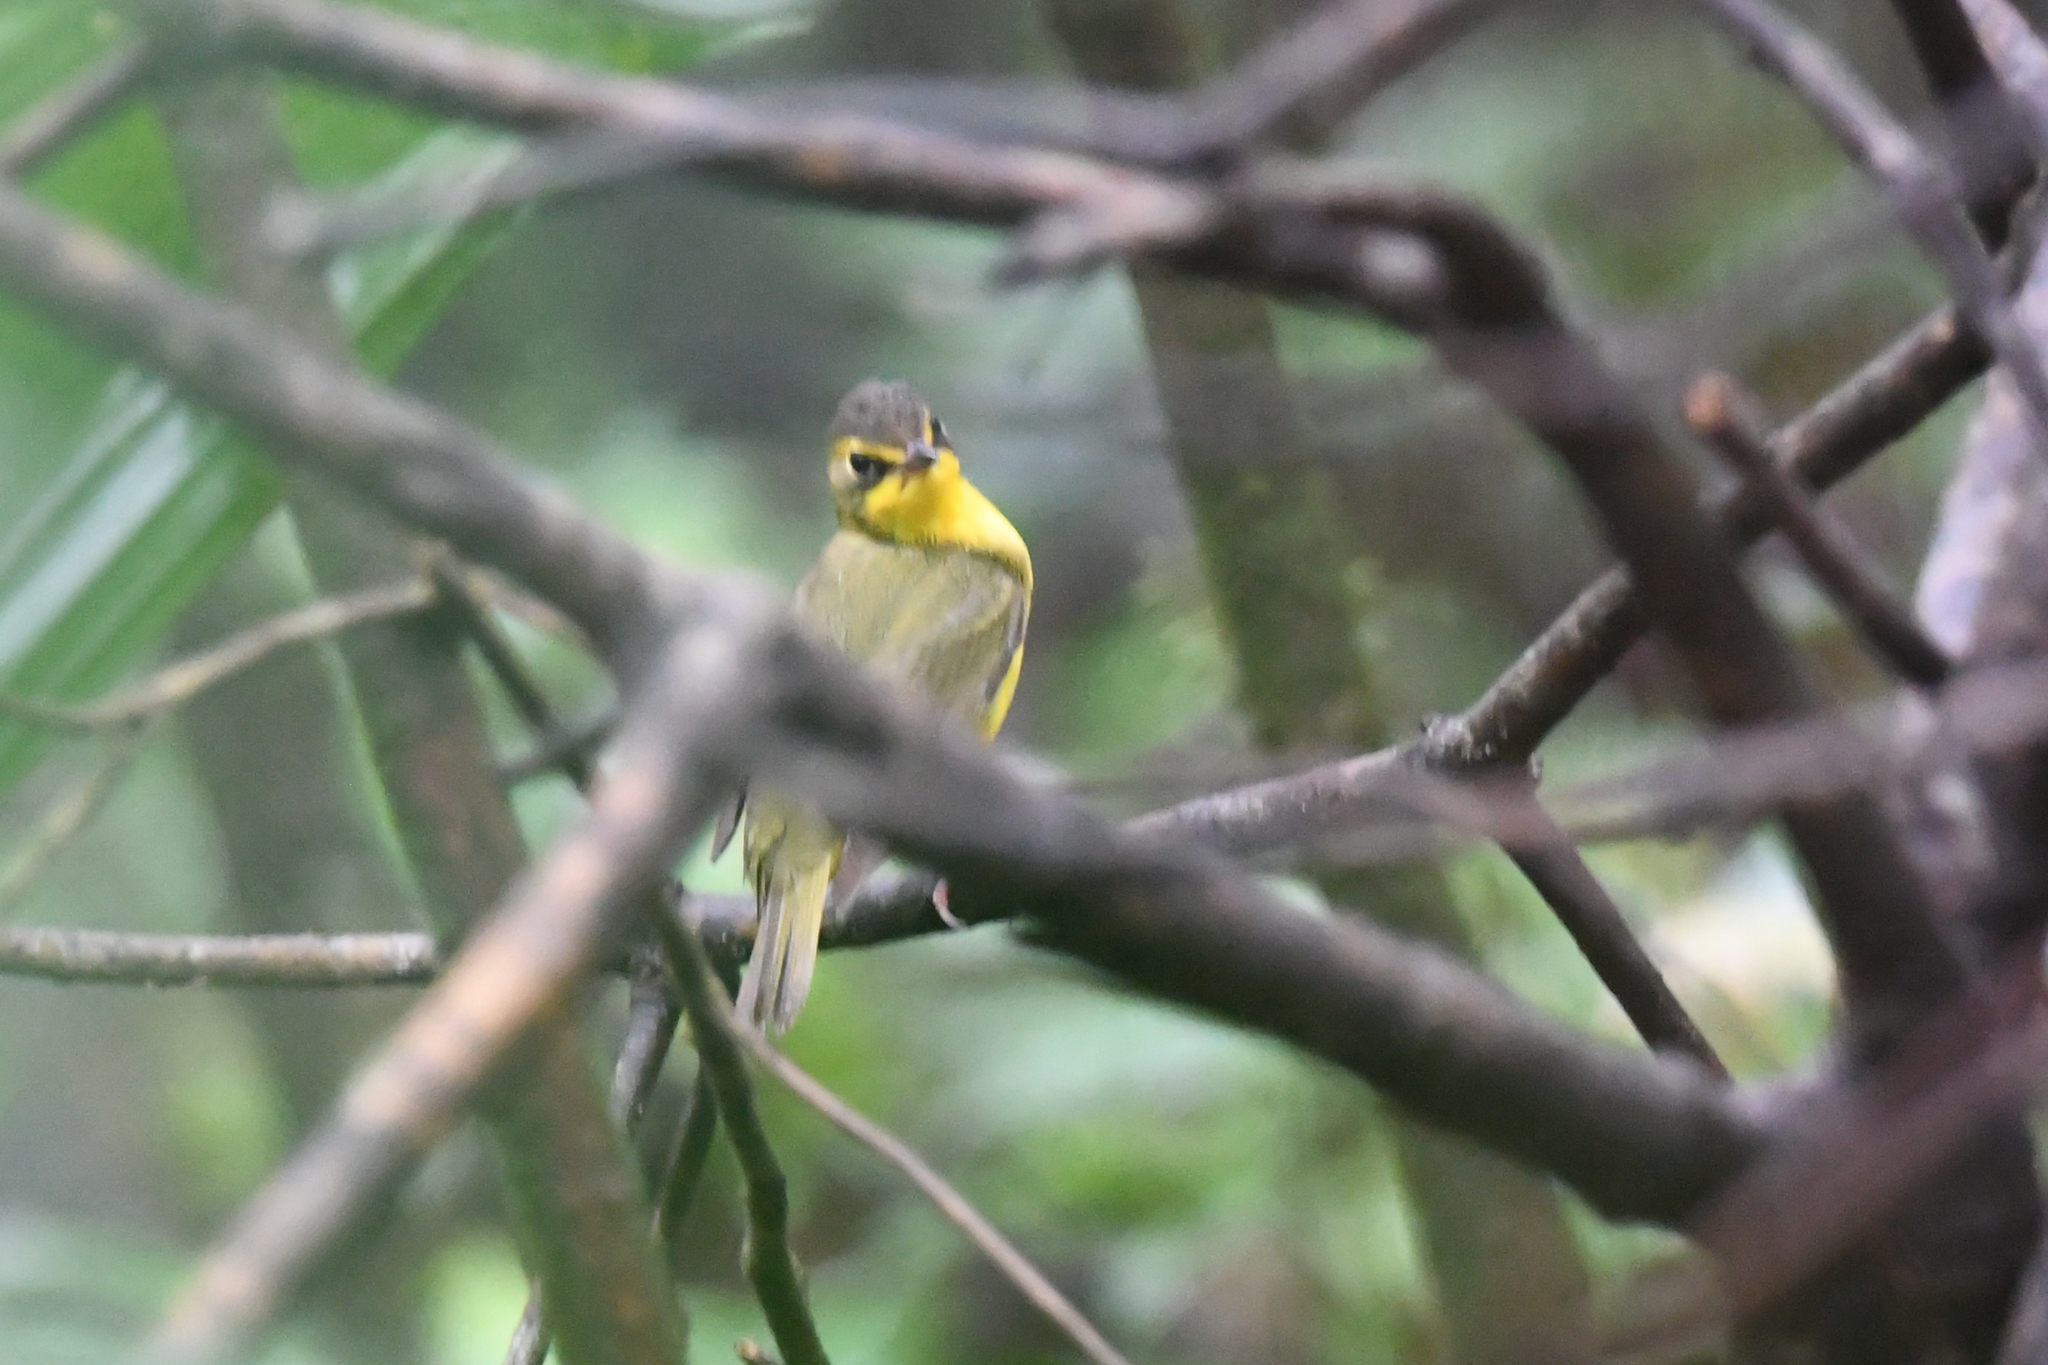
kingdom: Animalia
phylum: Chordata
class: Aves
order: Passeriformes
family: Parulidae
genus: Geothlypis
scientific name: Geothlypis formosa
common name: Kentucky warbler
